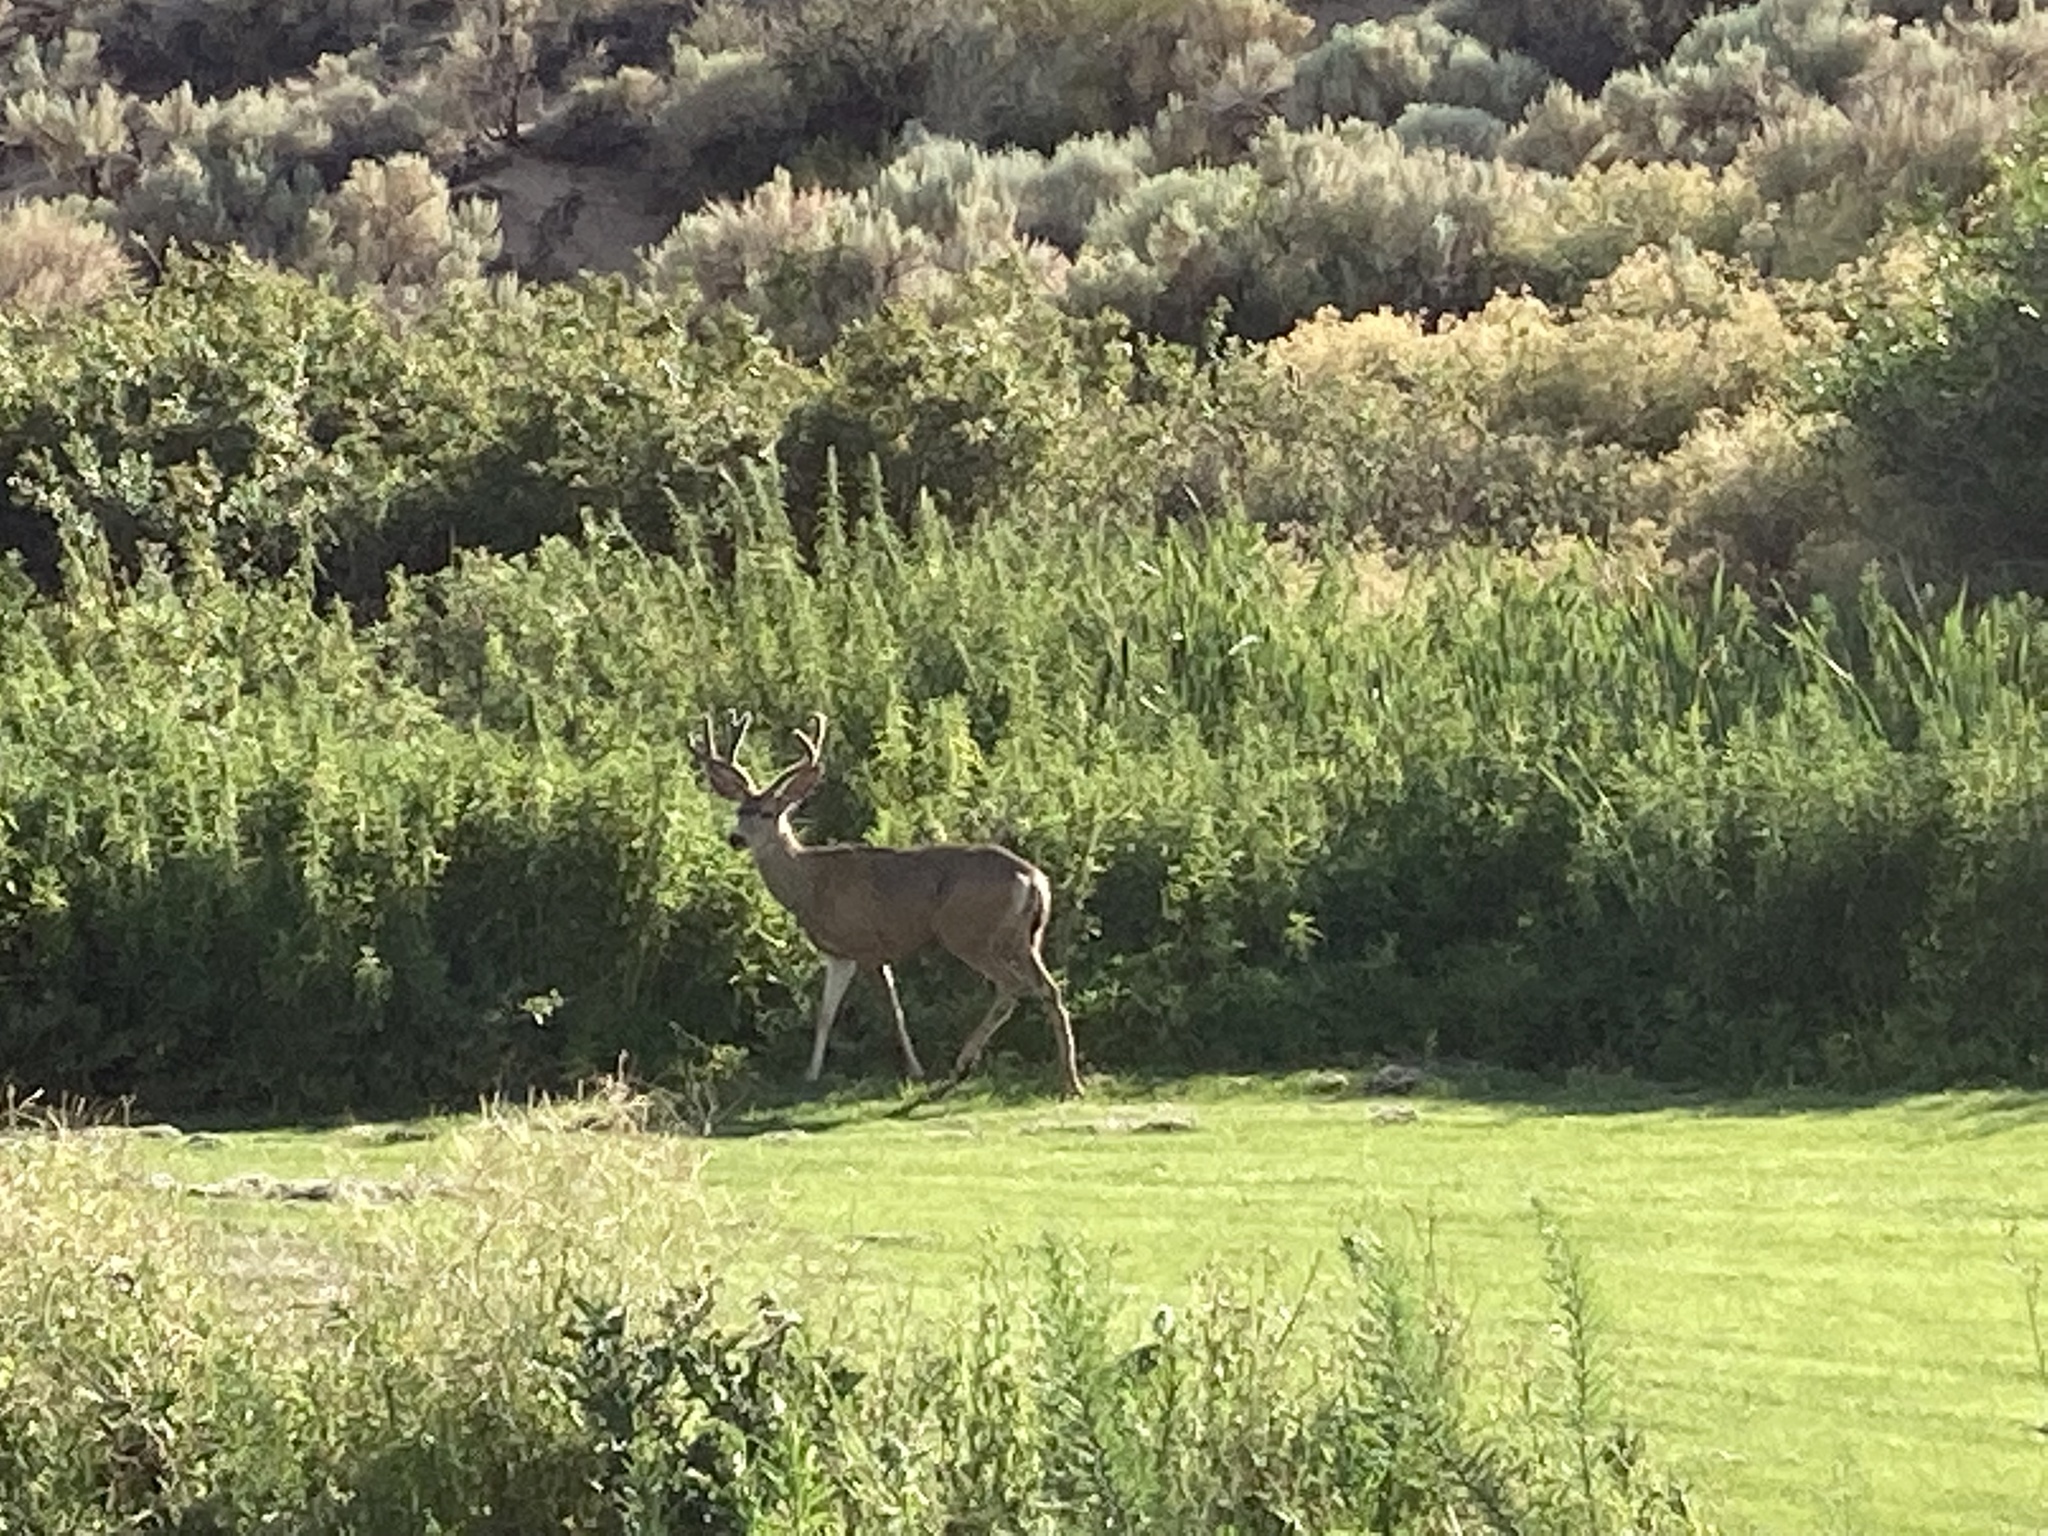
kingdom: Animalia
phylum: Chordata
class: Mammalia
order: Artiodactyla
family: Cervidae
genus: Odocoileus
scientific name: Odocoileus hemionus
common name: Mule deer
